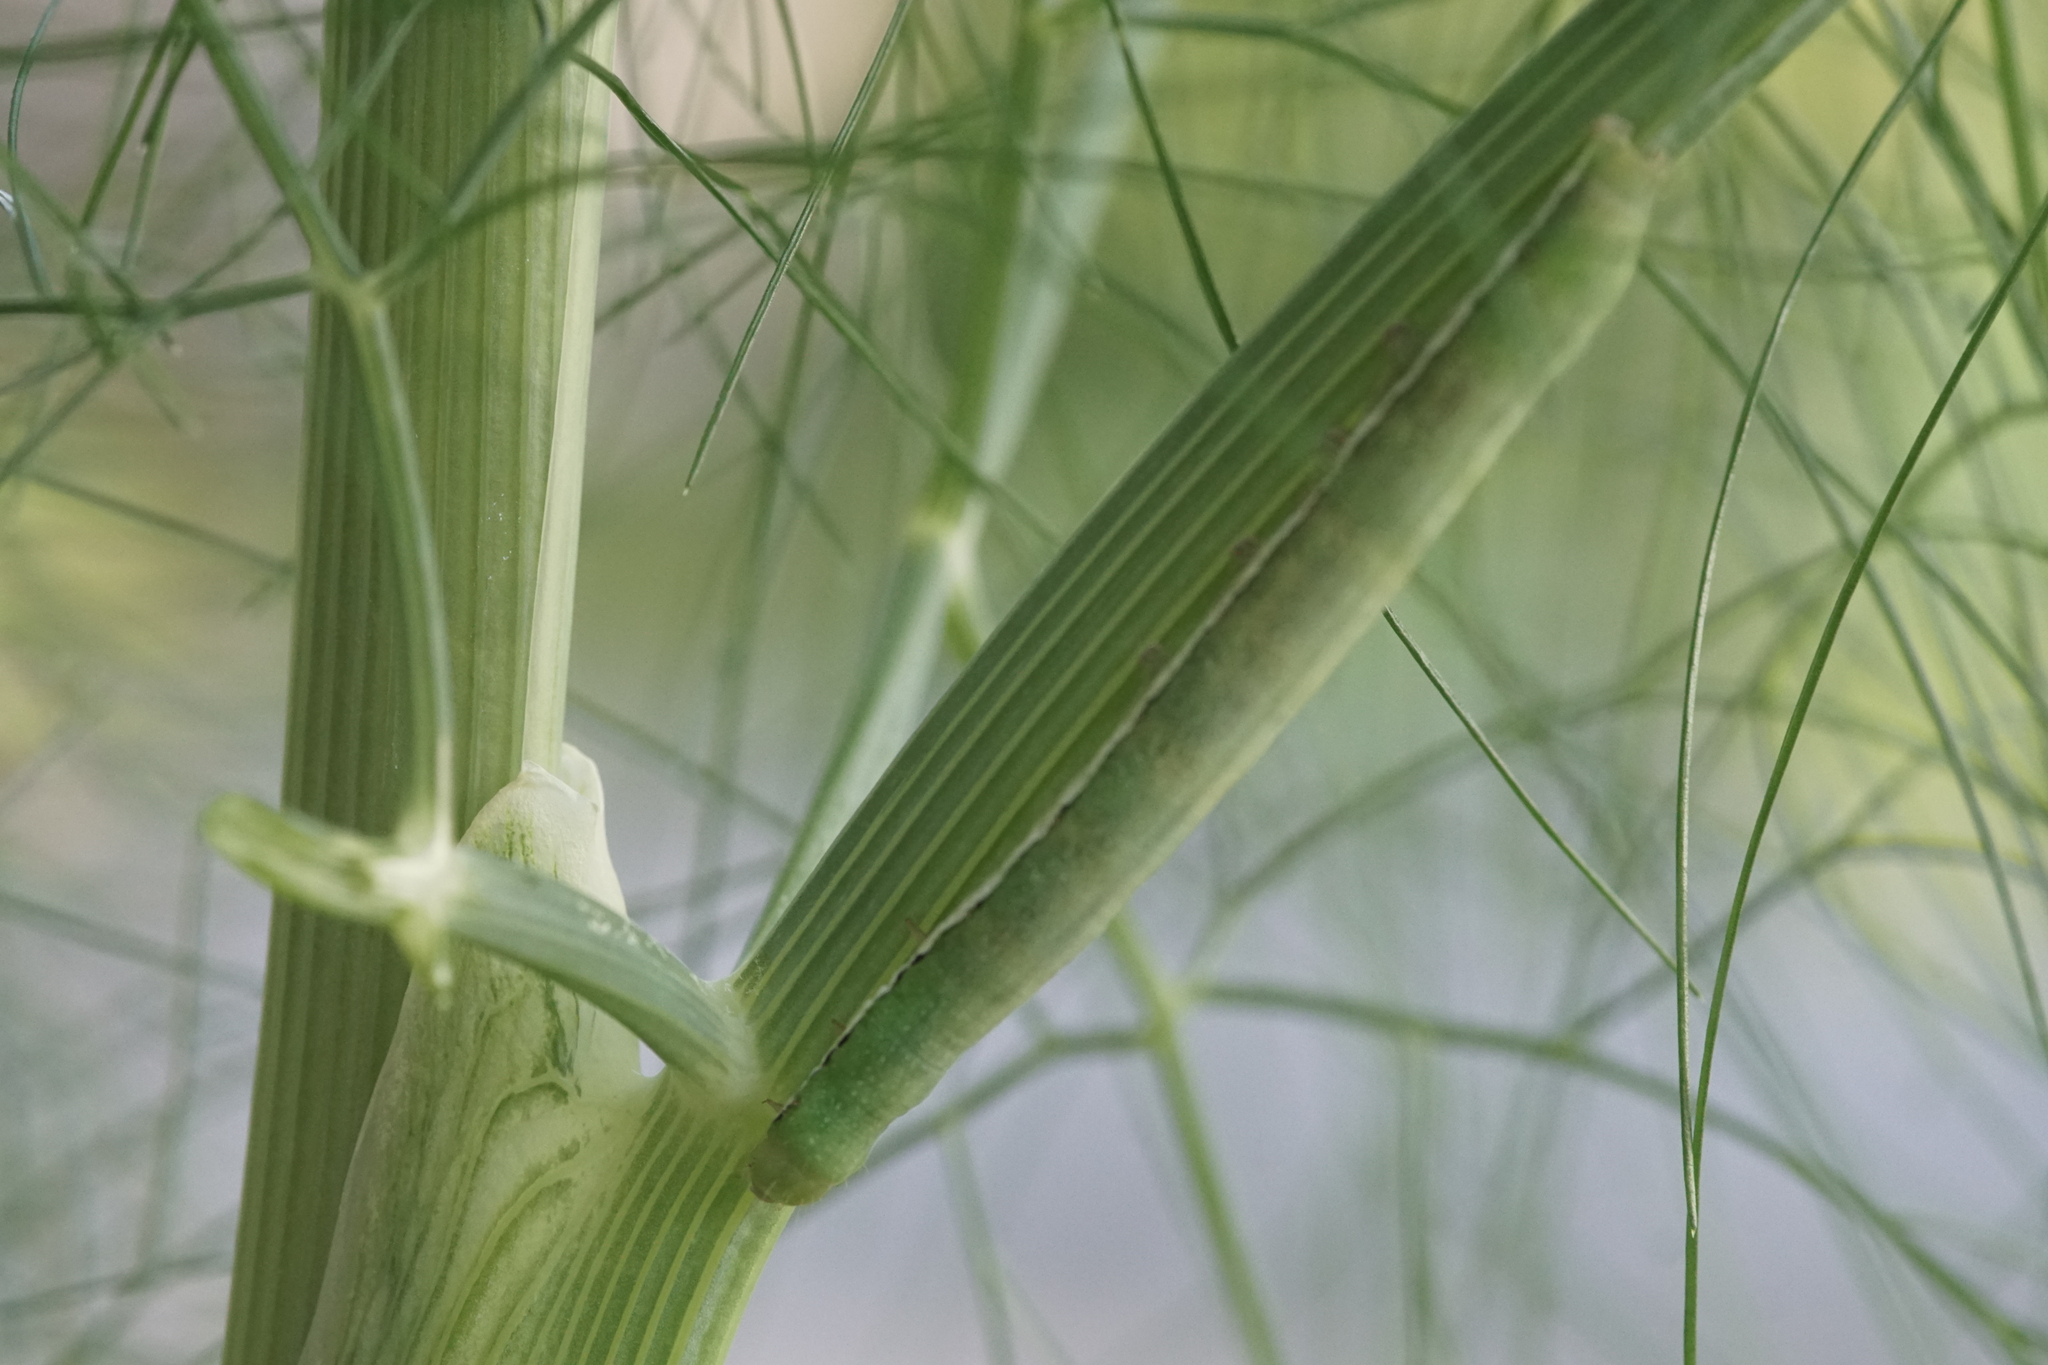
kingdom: Animalia
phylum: Arthropoda
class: Insecta
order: Lepidoptera
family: Noctuidae
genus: Polymixis
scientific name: Polymixis flavicincta
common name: Large ranunculus
